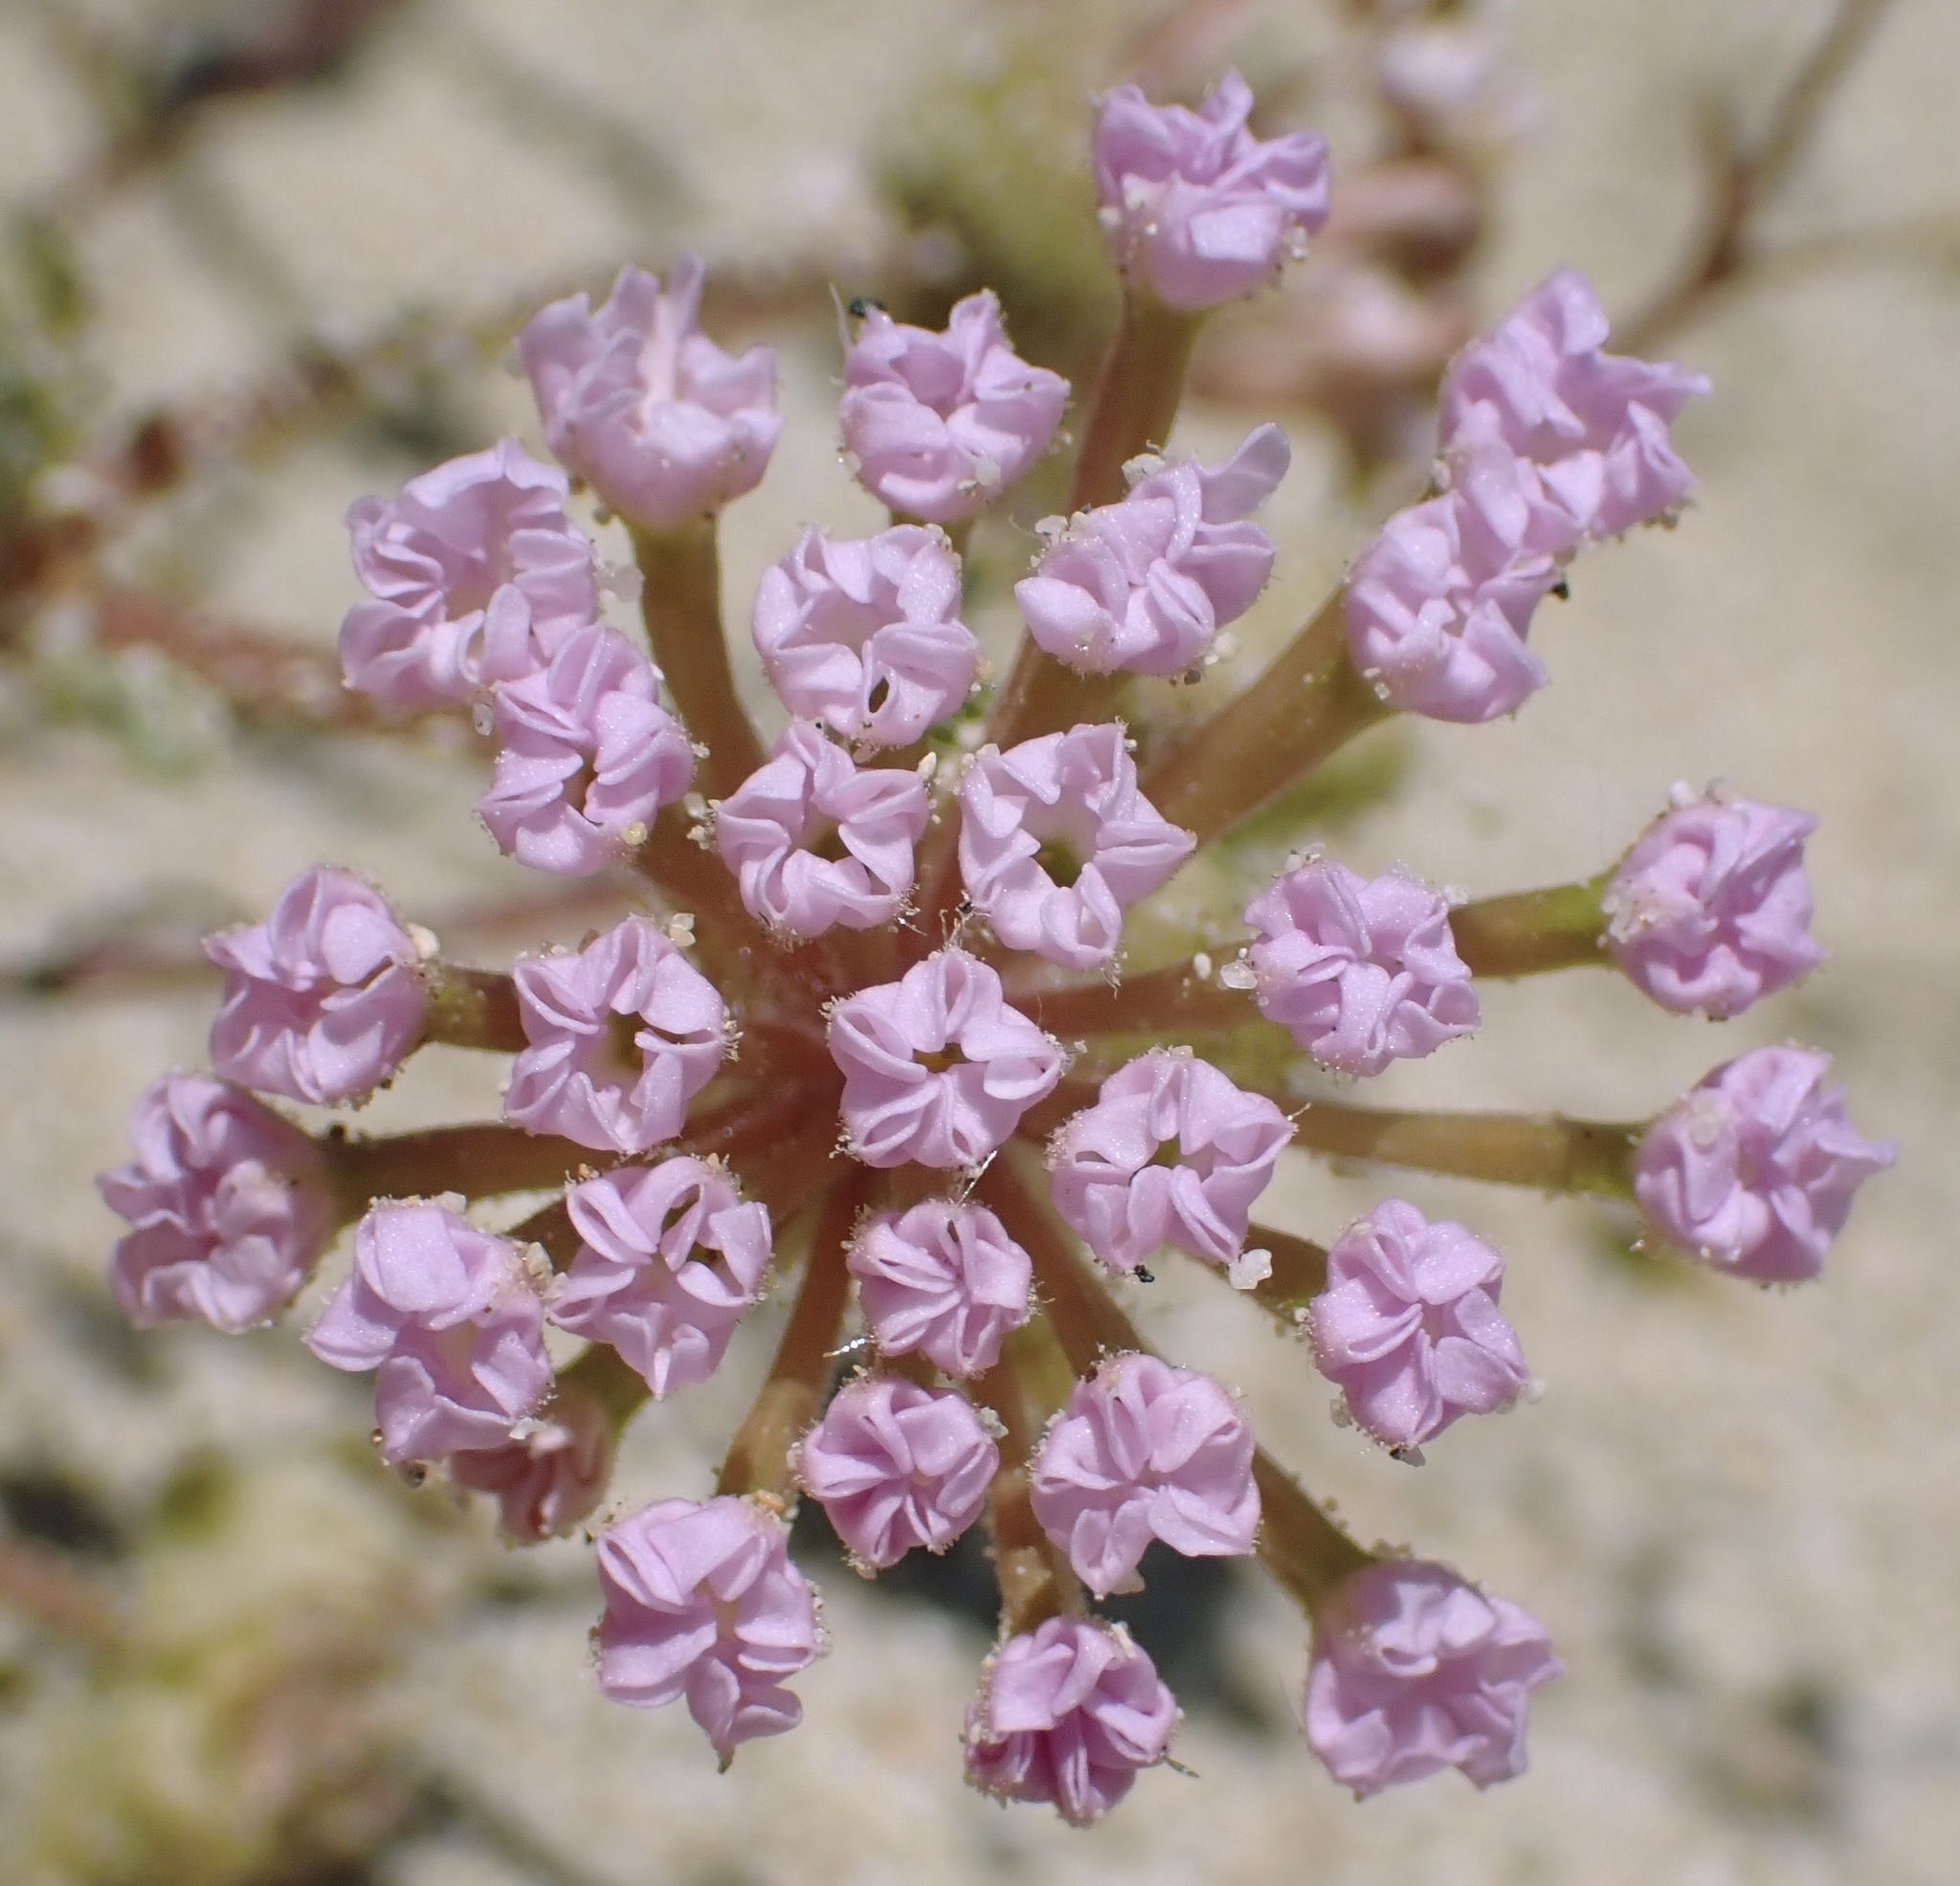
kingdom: Plantae
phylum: Tracheophyta
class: Magnoliopsida
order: Caryophyllales
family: Nyctaginaceae
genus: Abronia
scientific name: Abronia pogonantha
